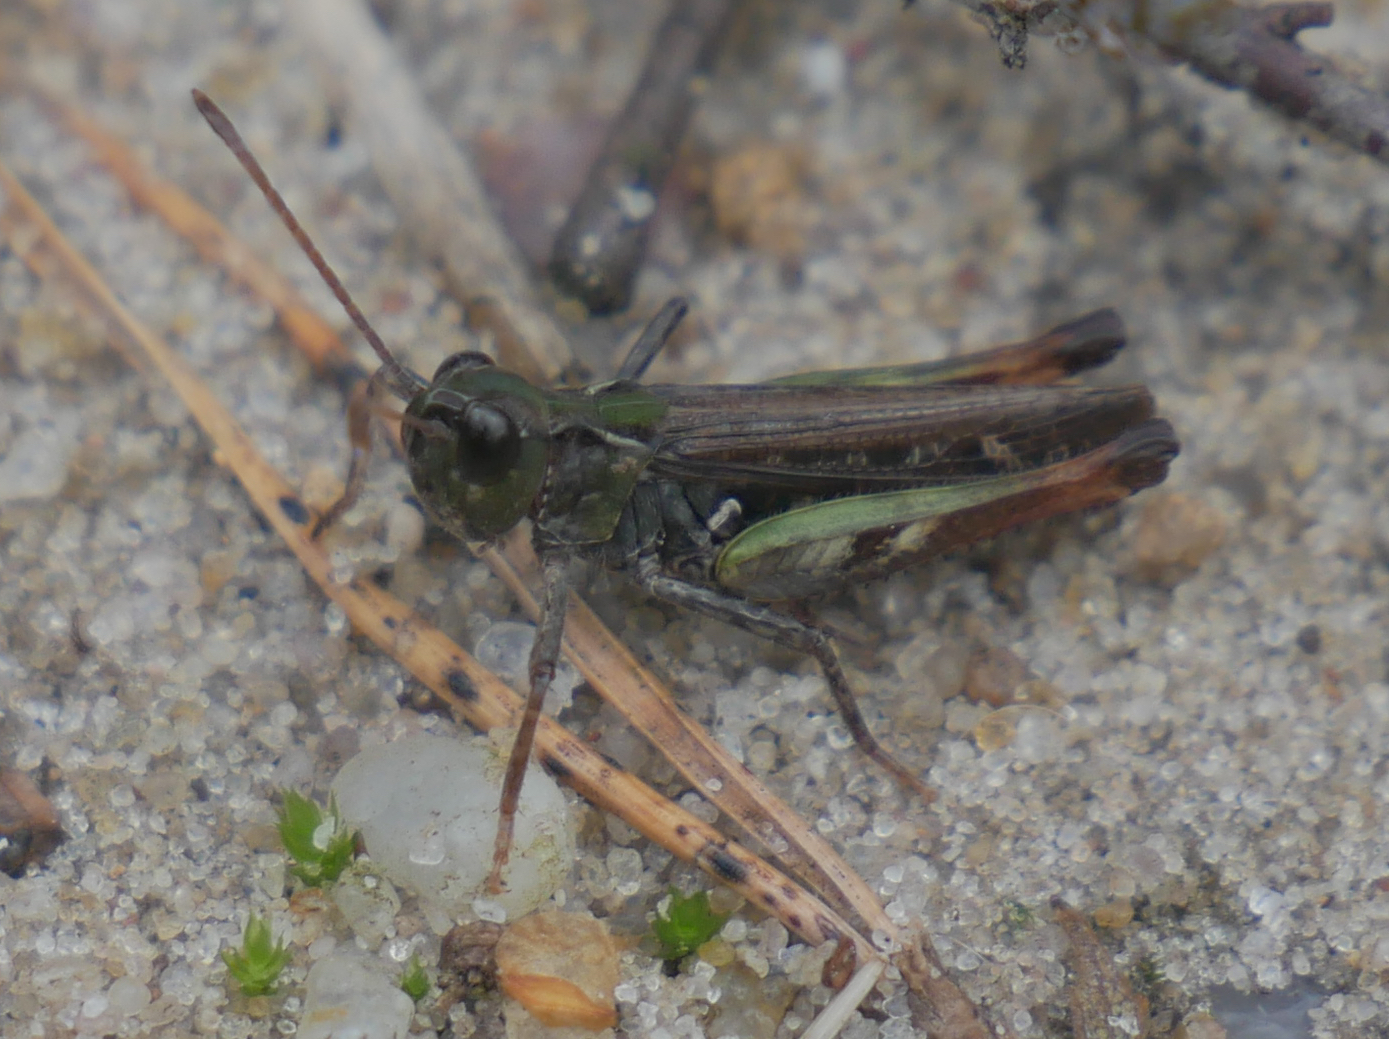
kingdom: Animalia
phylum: Arthropoda
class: Insecta
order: Orthoptera
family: Acrididae
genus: Myrmeleotettix
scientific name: Myrmeleotettix maculatus
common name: Mottled grasshopper
